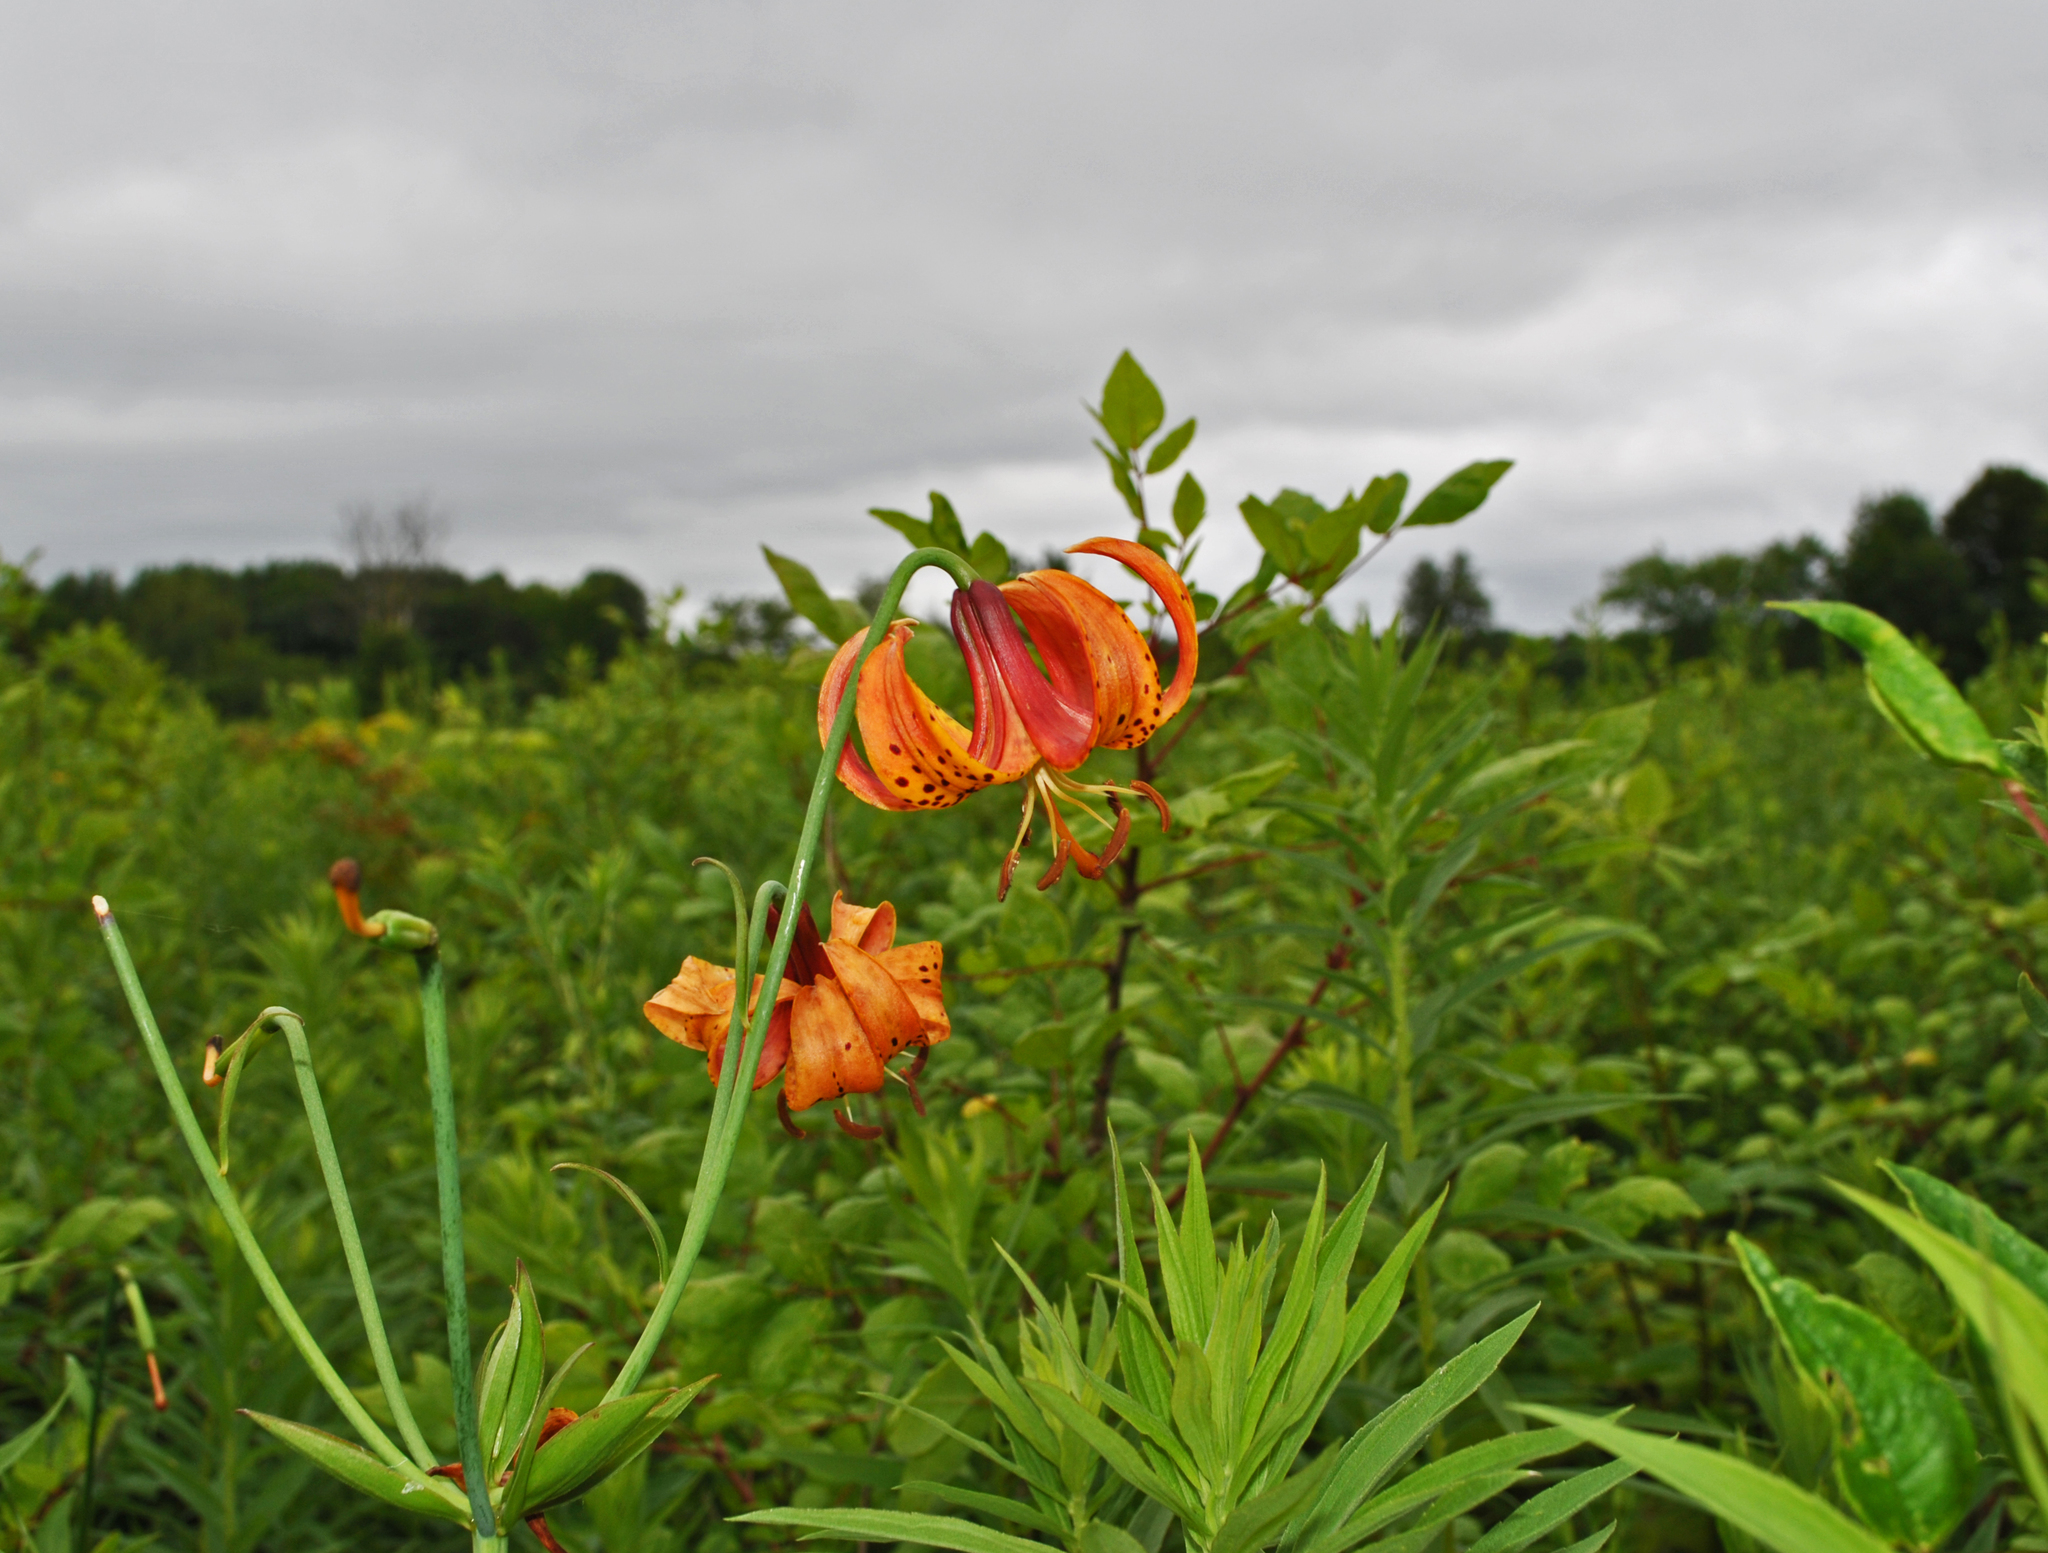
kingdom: Plantae
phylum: Tracheophyta
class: Liliopsida
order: Liliales
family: Liliaceae
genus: Lilium
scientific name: Lilium michiganense
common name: Michigan lily
